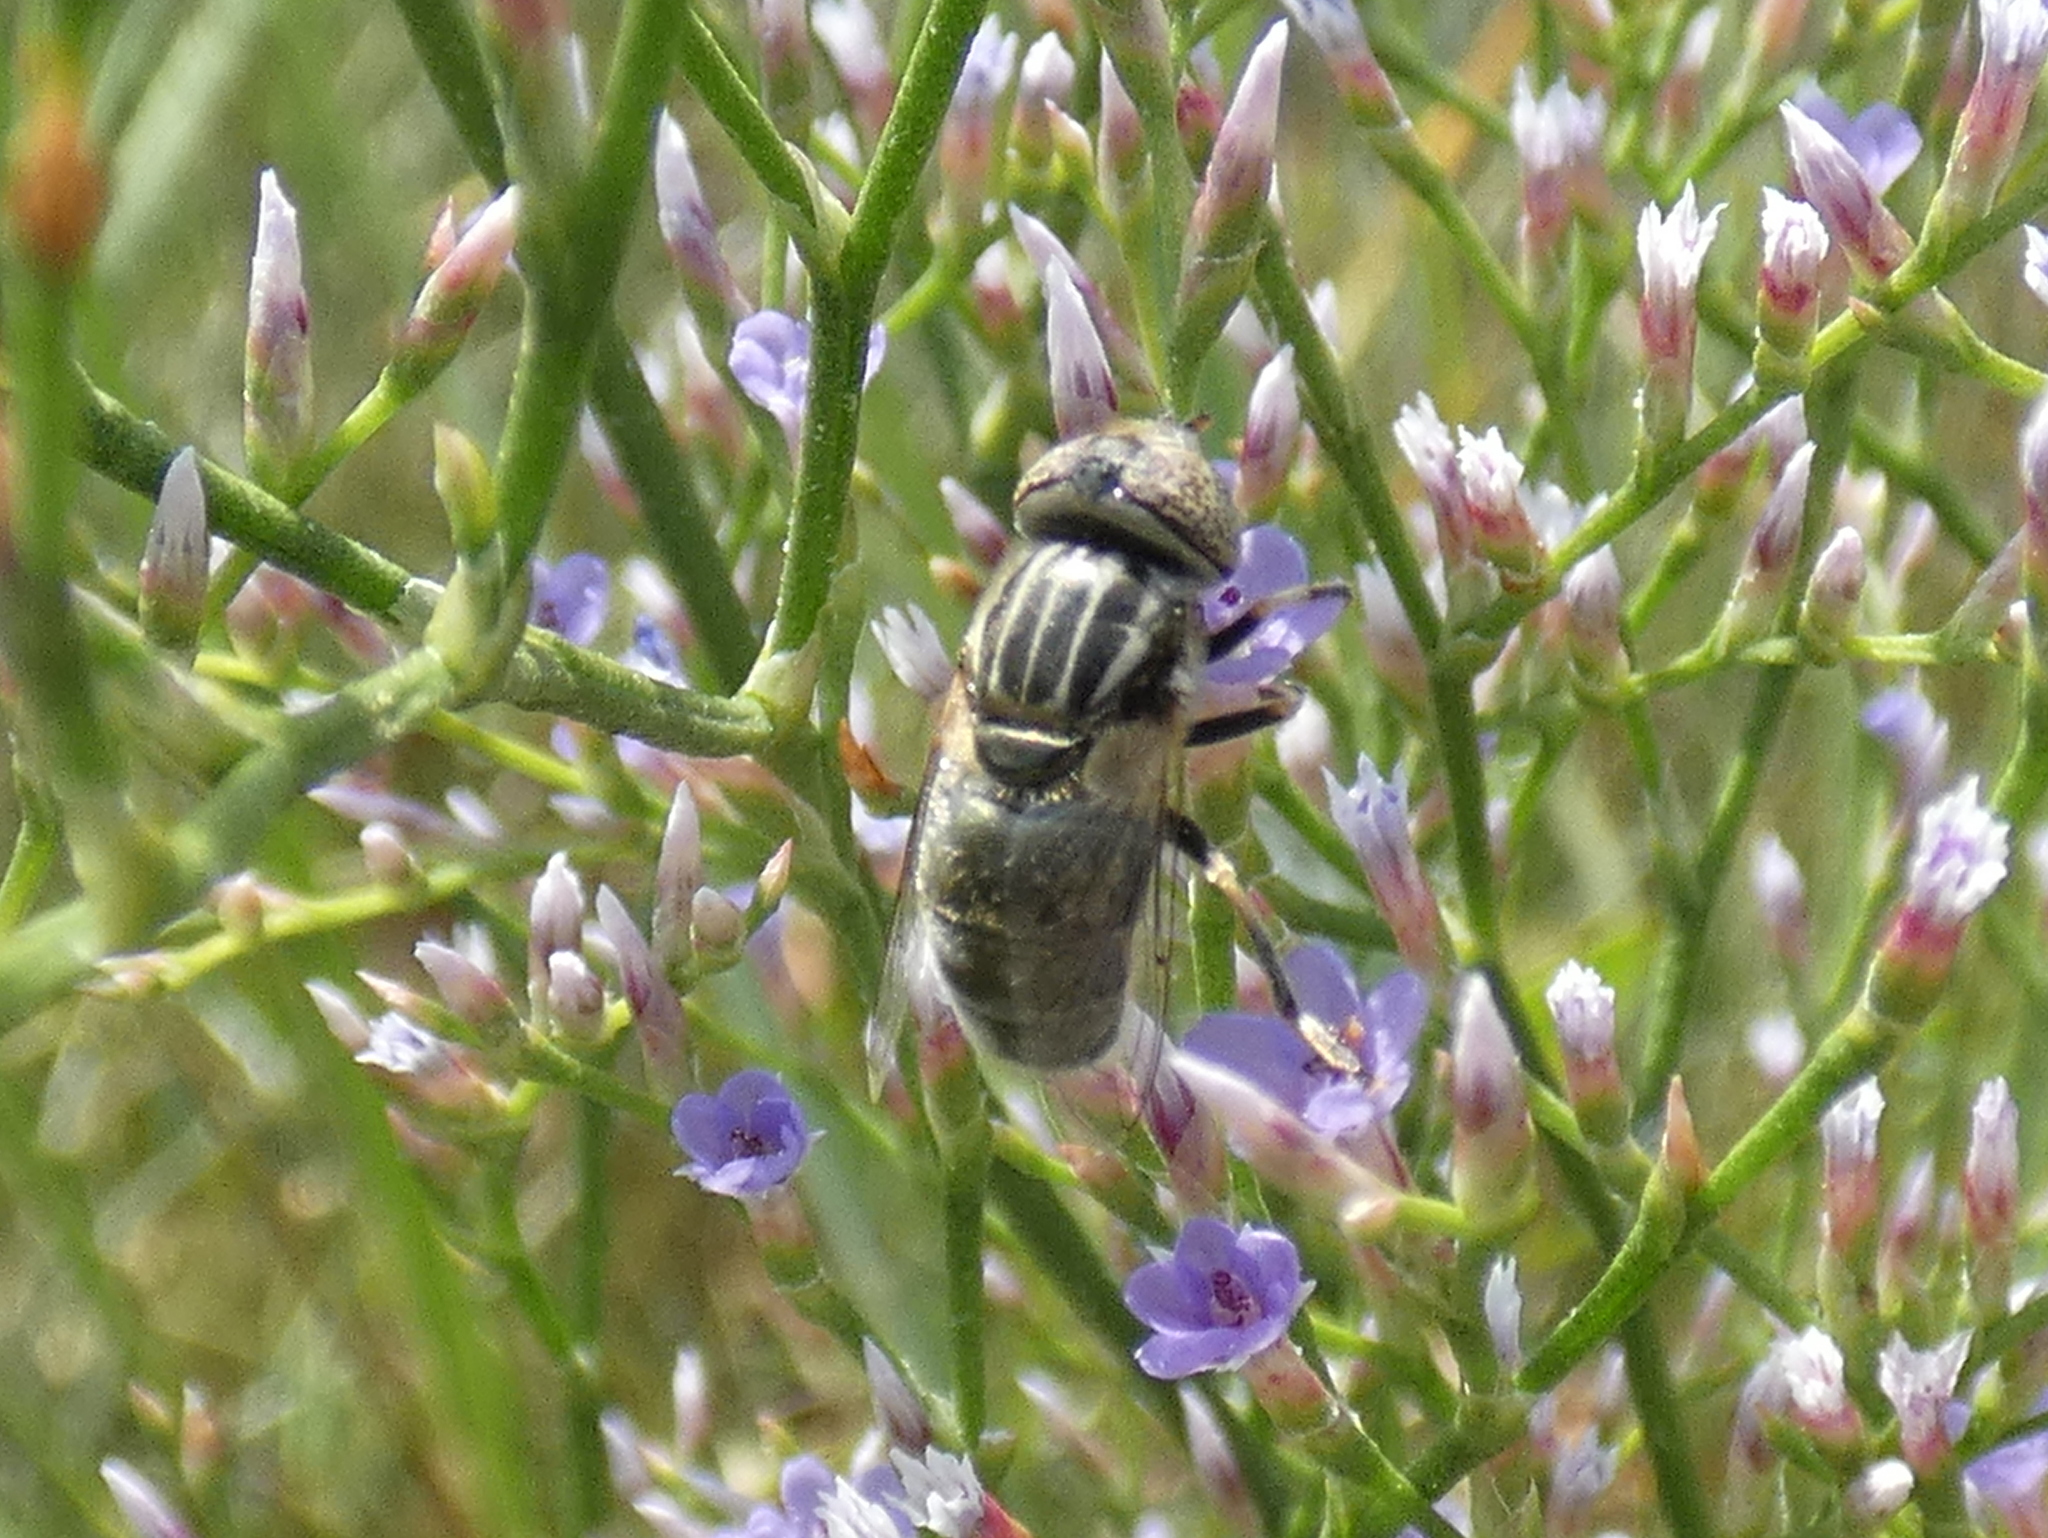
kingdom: Animalia
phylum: Arthropoda
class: Insecta
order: Diptera
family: Syrphidae
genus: Eristalinus
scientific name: Eristalinus aeneus
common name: Syrphid fly
